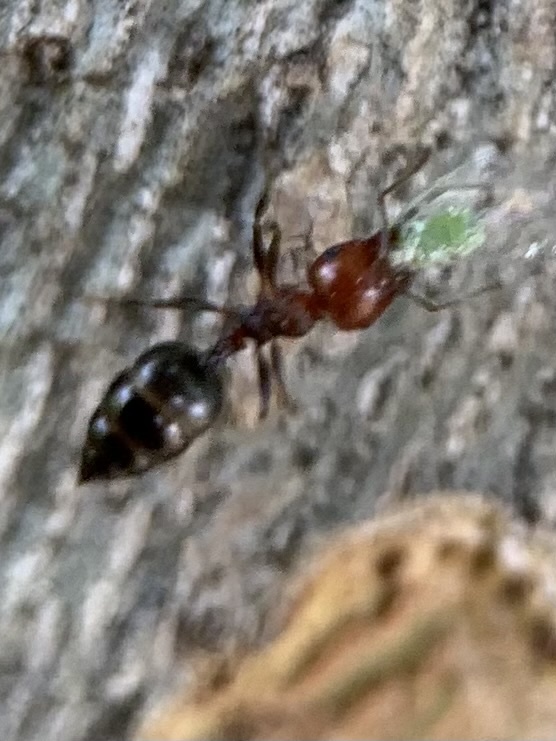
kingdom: Animalia
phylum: Arthropoda
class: Insecta
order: Hymenoptera
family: Formicidae
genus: Crematogaster
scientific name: Crematogaster scutellaris
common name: Fourmi du liège
